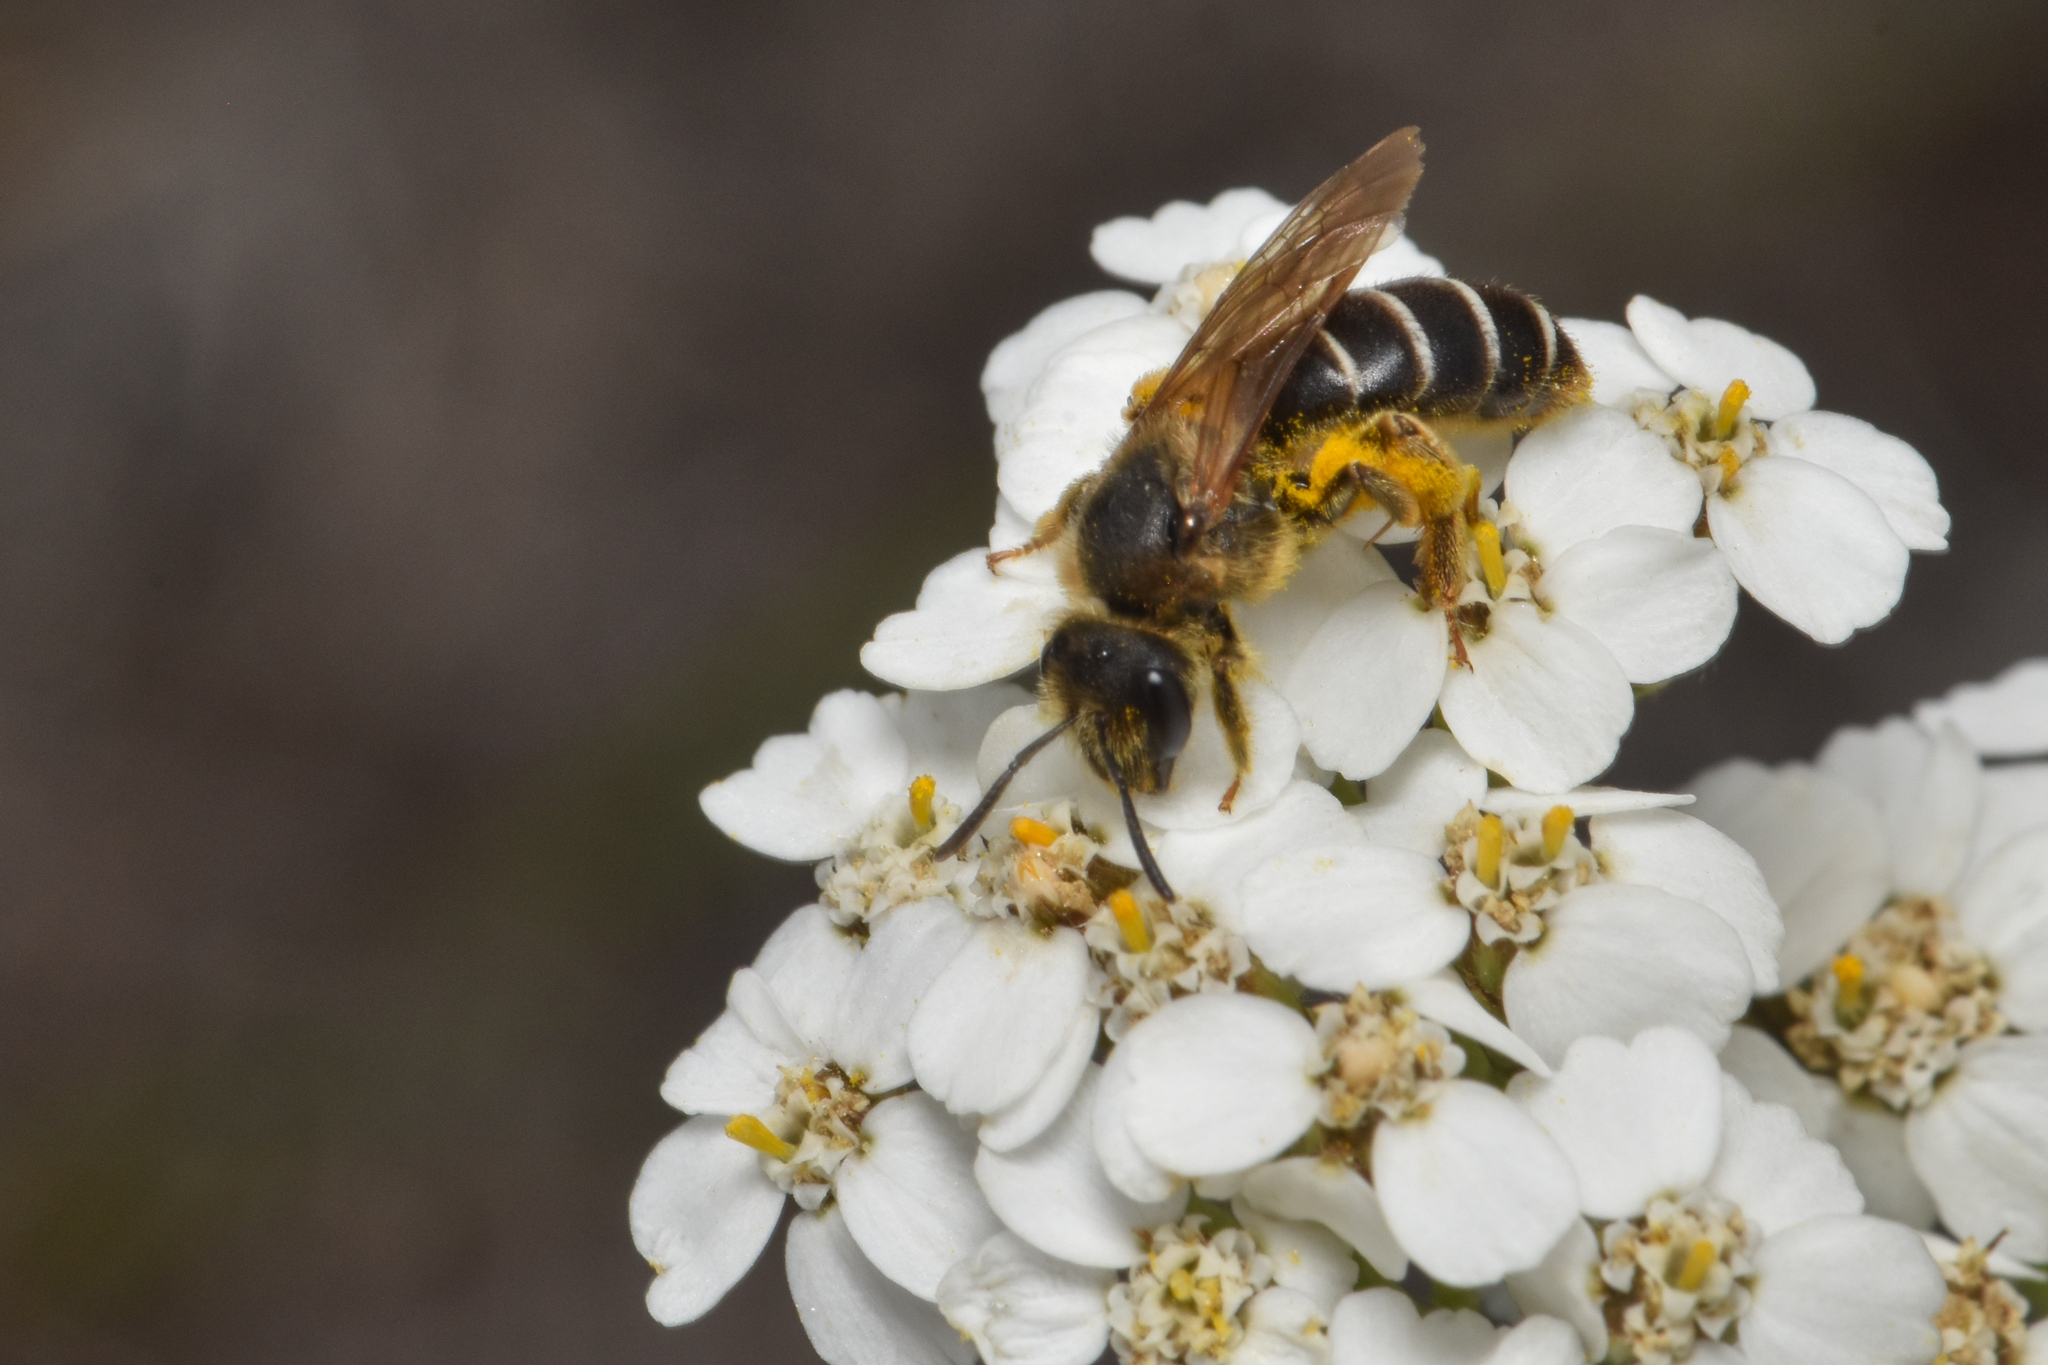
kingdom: Animalia
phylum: Arthropoda
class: Insecta
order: Hymenoptera
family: Halictidae
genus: Halictus
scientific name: Halictus rubicundus
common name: Orange-legged furrow bee
